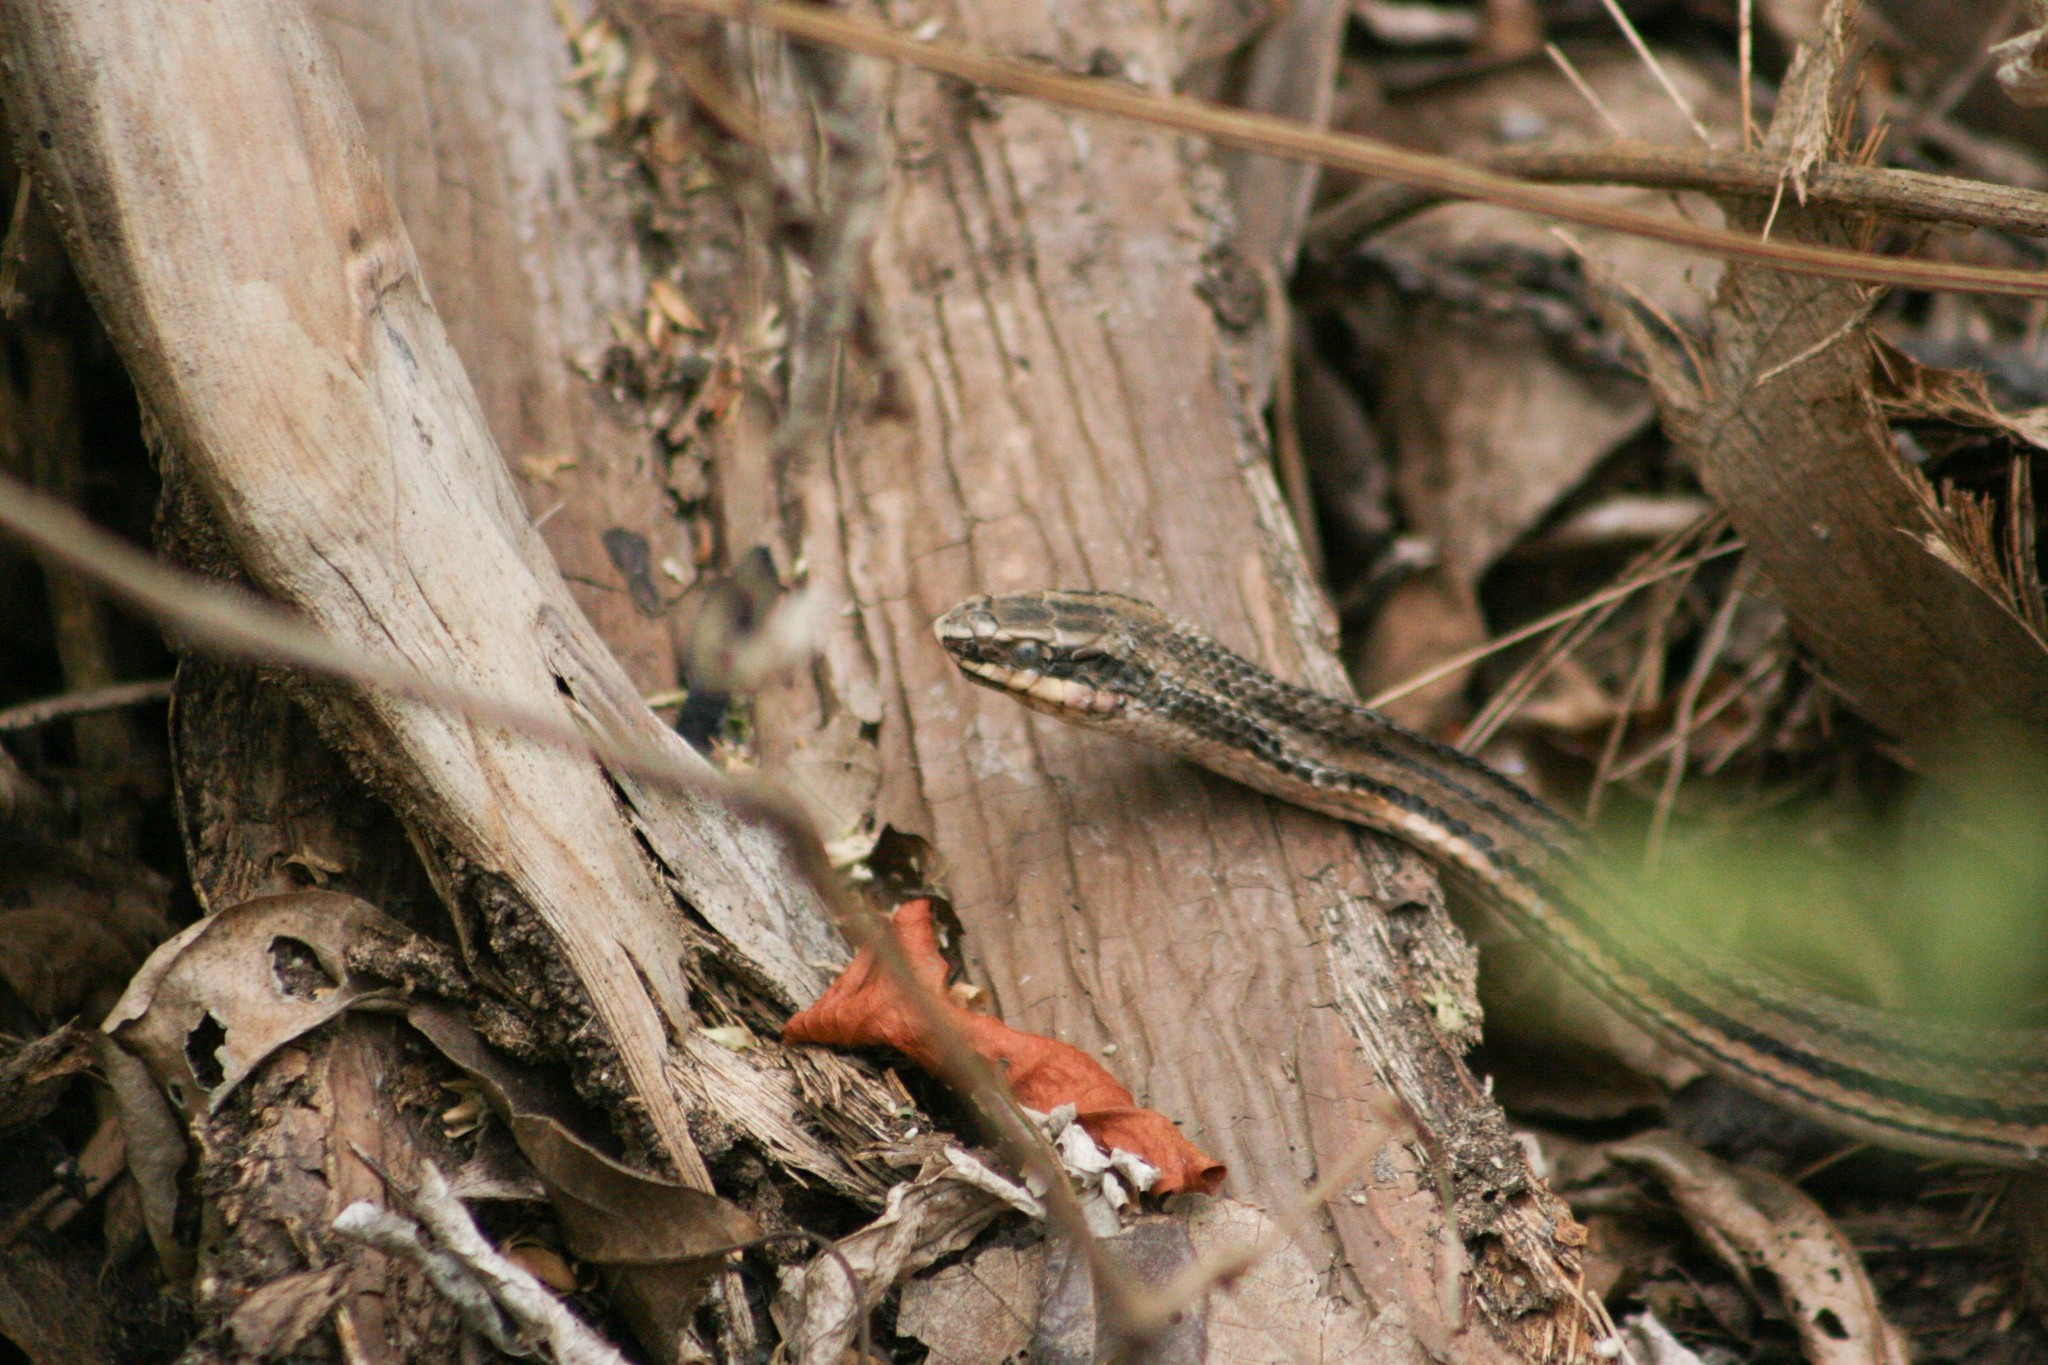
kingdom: Animalia
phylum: Chordata
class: Squamata
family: Colubridae
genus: Conophis
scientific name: Conophis lineatus
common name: Road guarder
